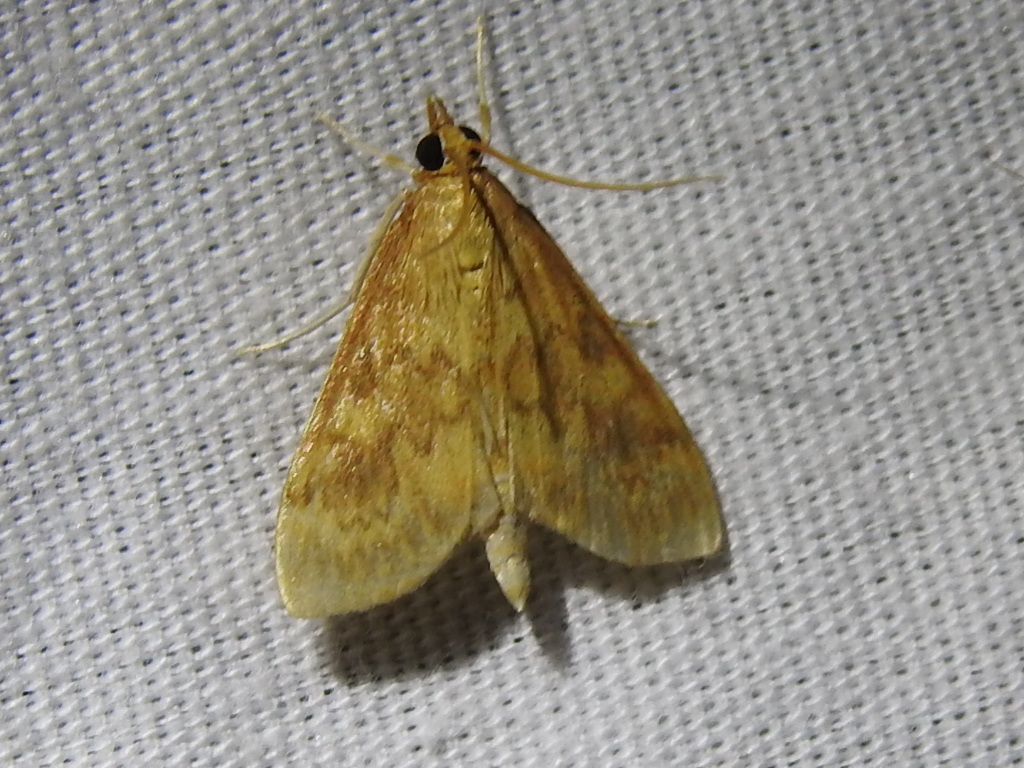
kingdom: Animalia
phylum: Arthropoda
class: Insecta
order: Lepidoptera
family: Crambidae
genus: Ostrinia
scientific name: Ostrinia penitalis
